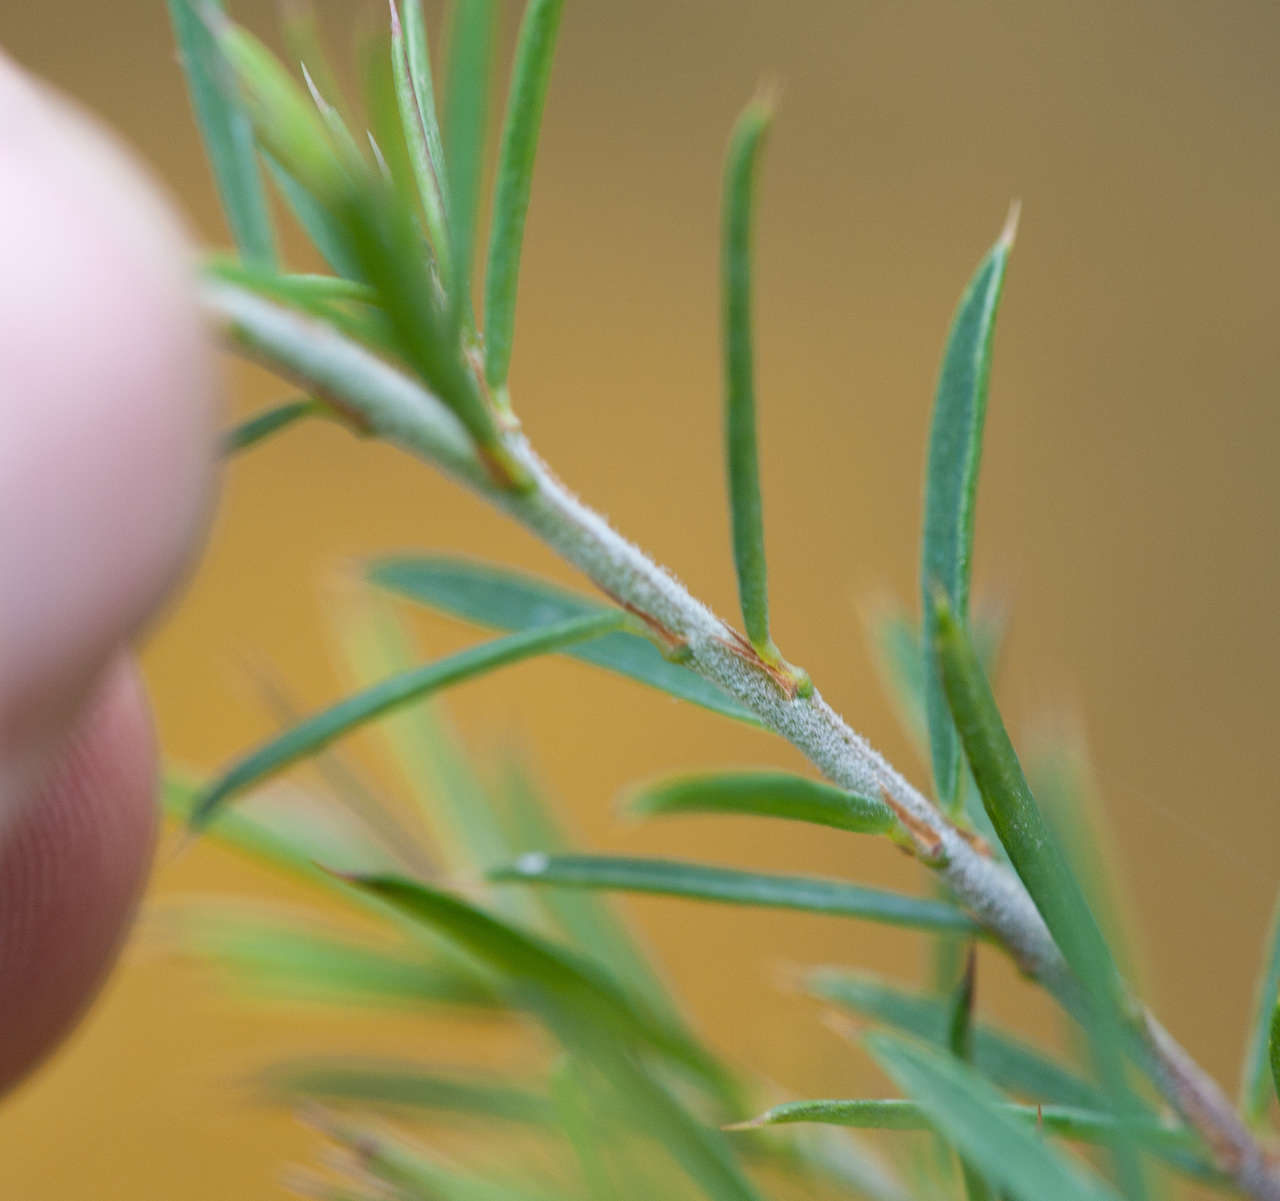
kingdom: Plantae
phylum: Tracheophyta
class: Magnoliopsida
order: Fabales
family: Fabaceae
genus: Pultenaea
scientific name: Pultenaea juniperina
